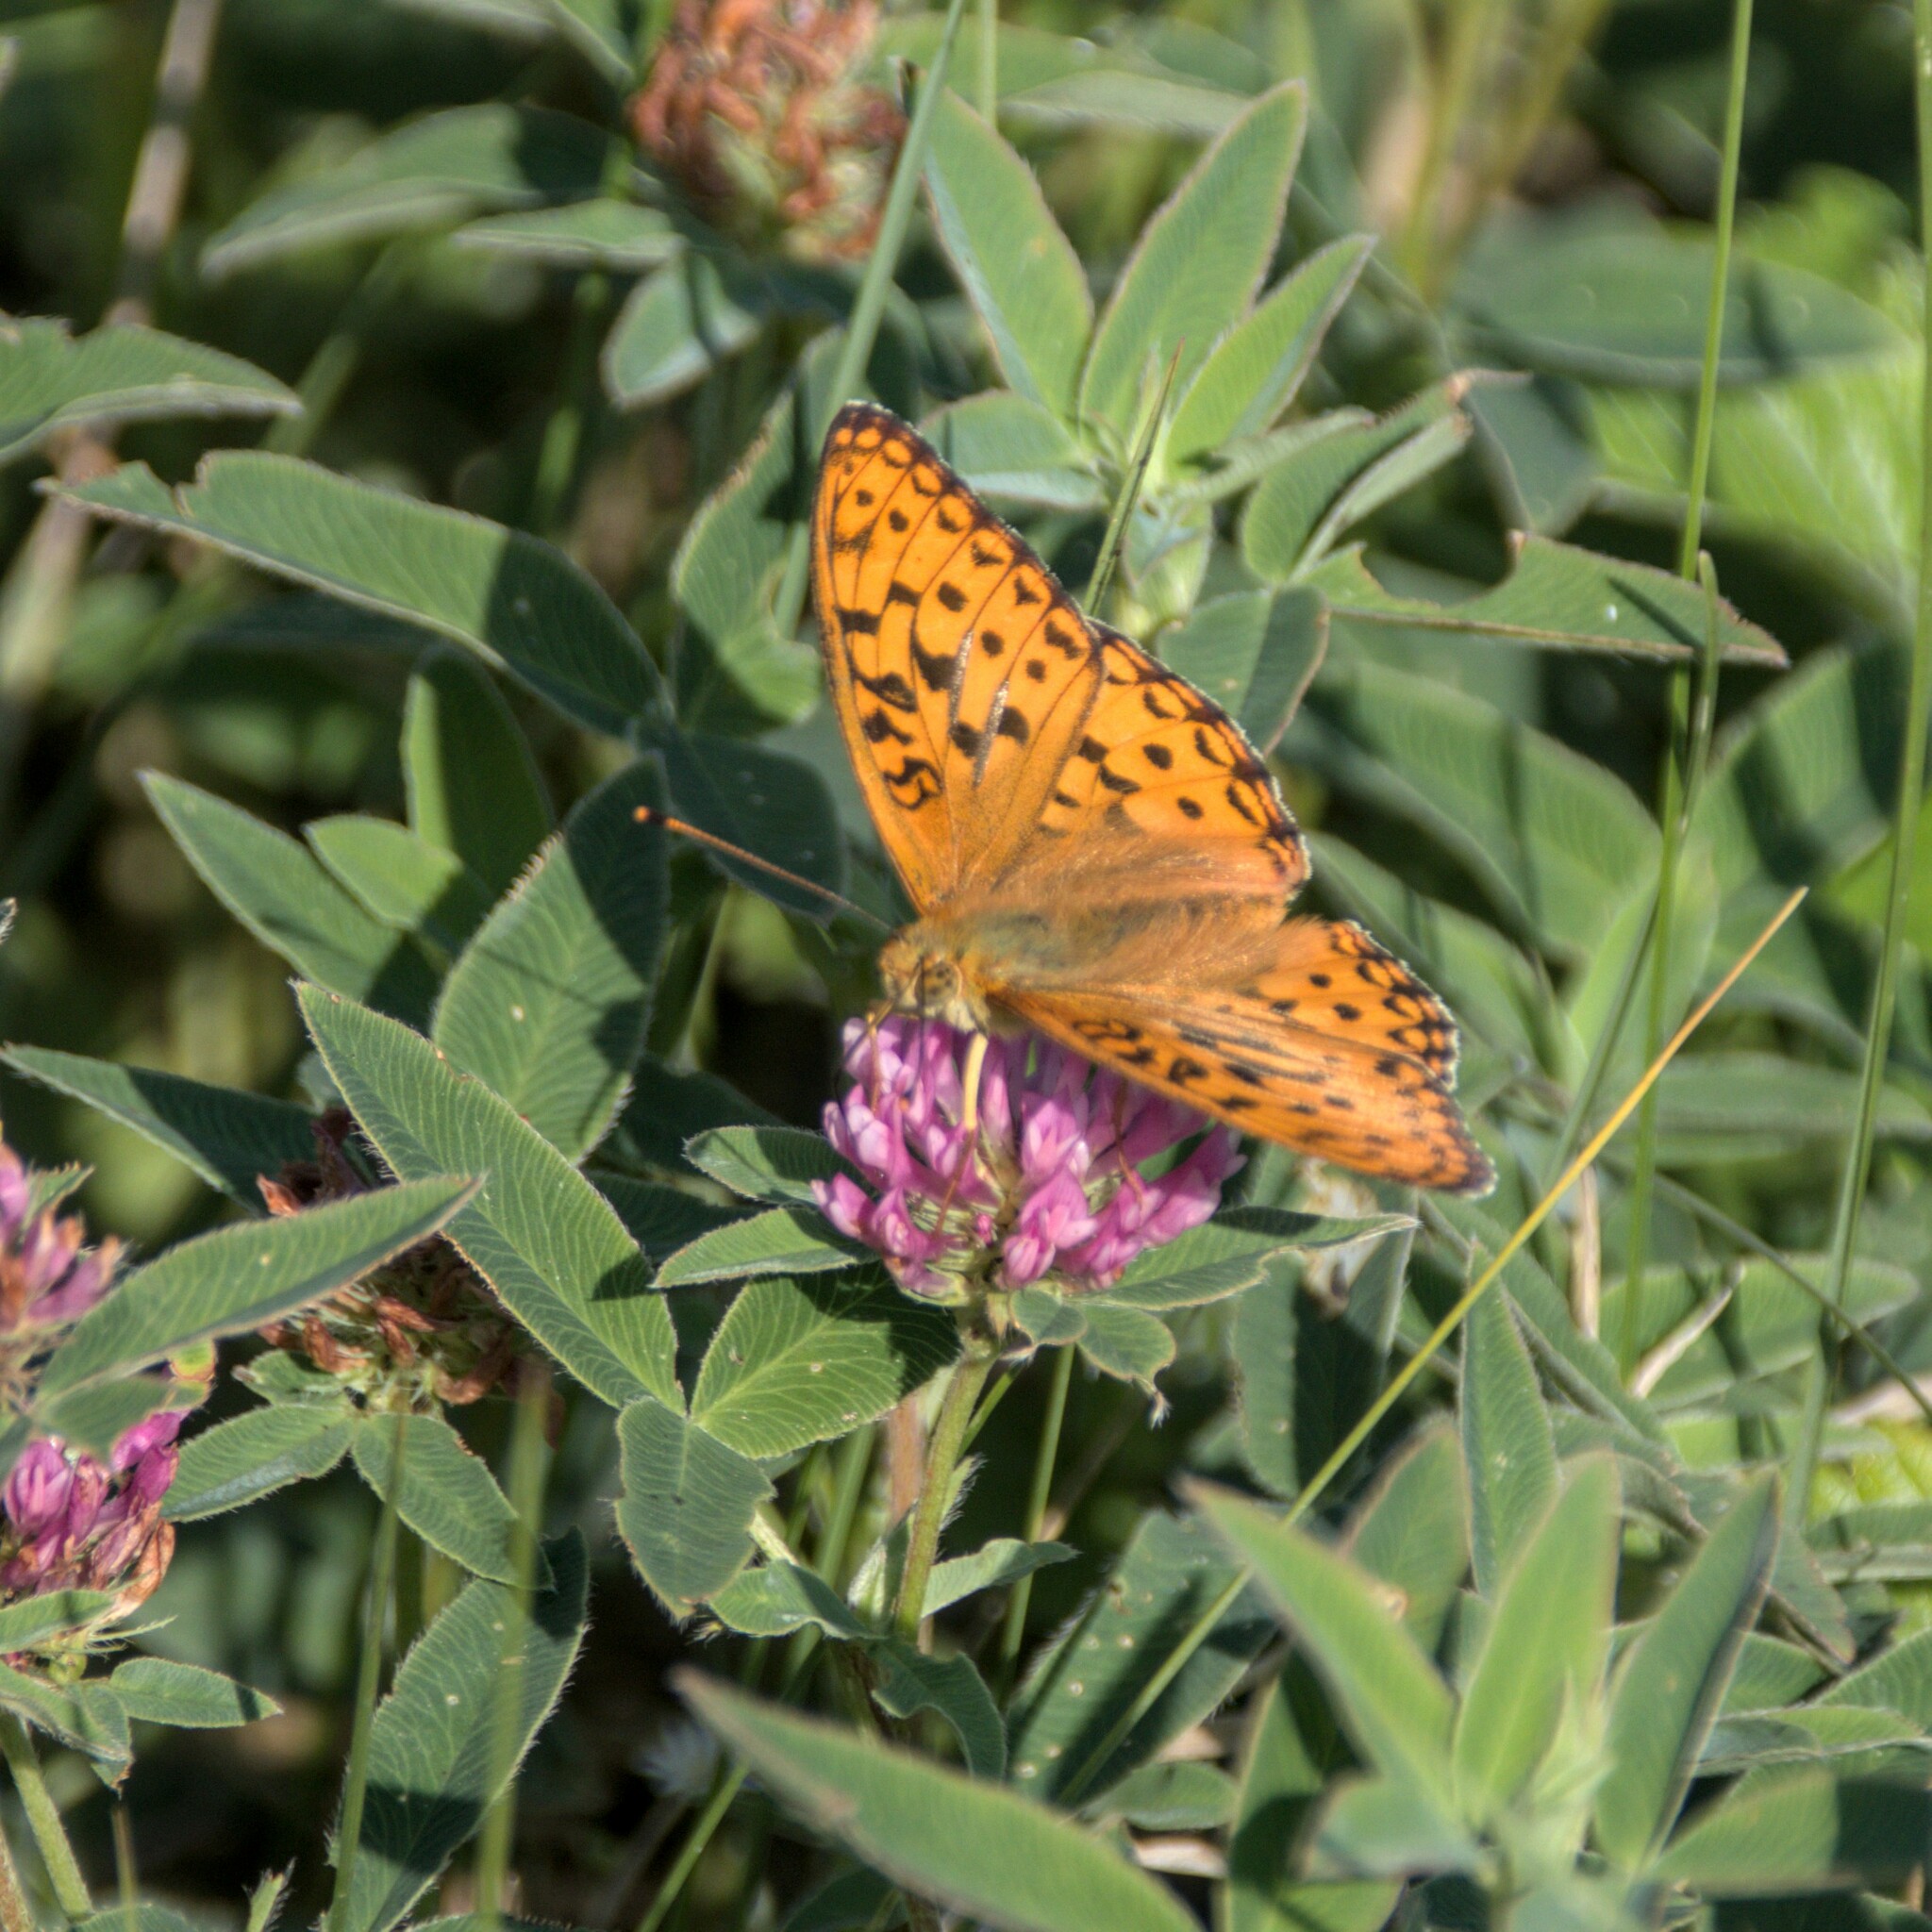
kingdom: Animalia
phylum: Arthropoda
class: Insecta
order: Lepidoptera
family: Nymphalidae
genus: Fabriciana
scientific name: Fabriciana adippe
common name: High brown fritillary
